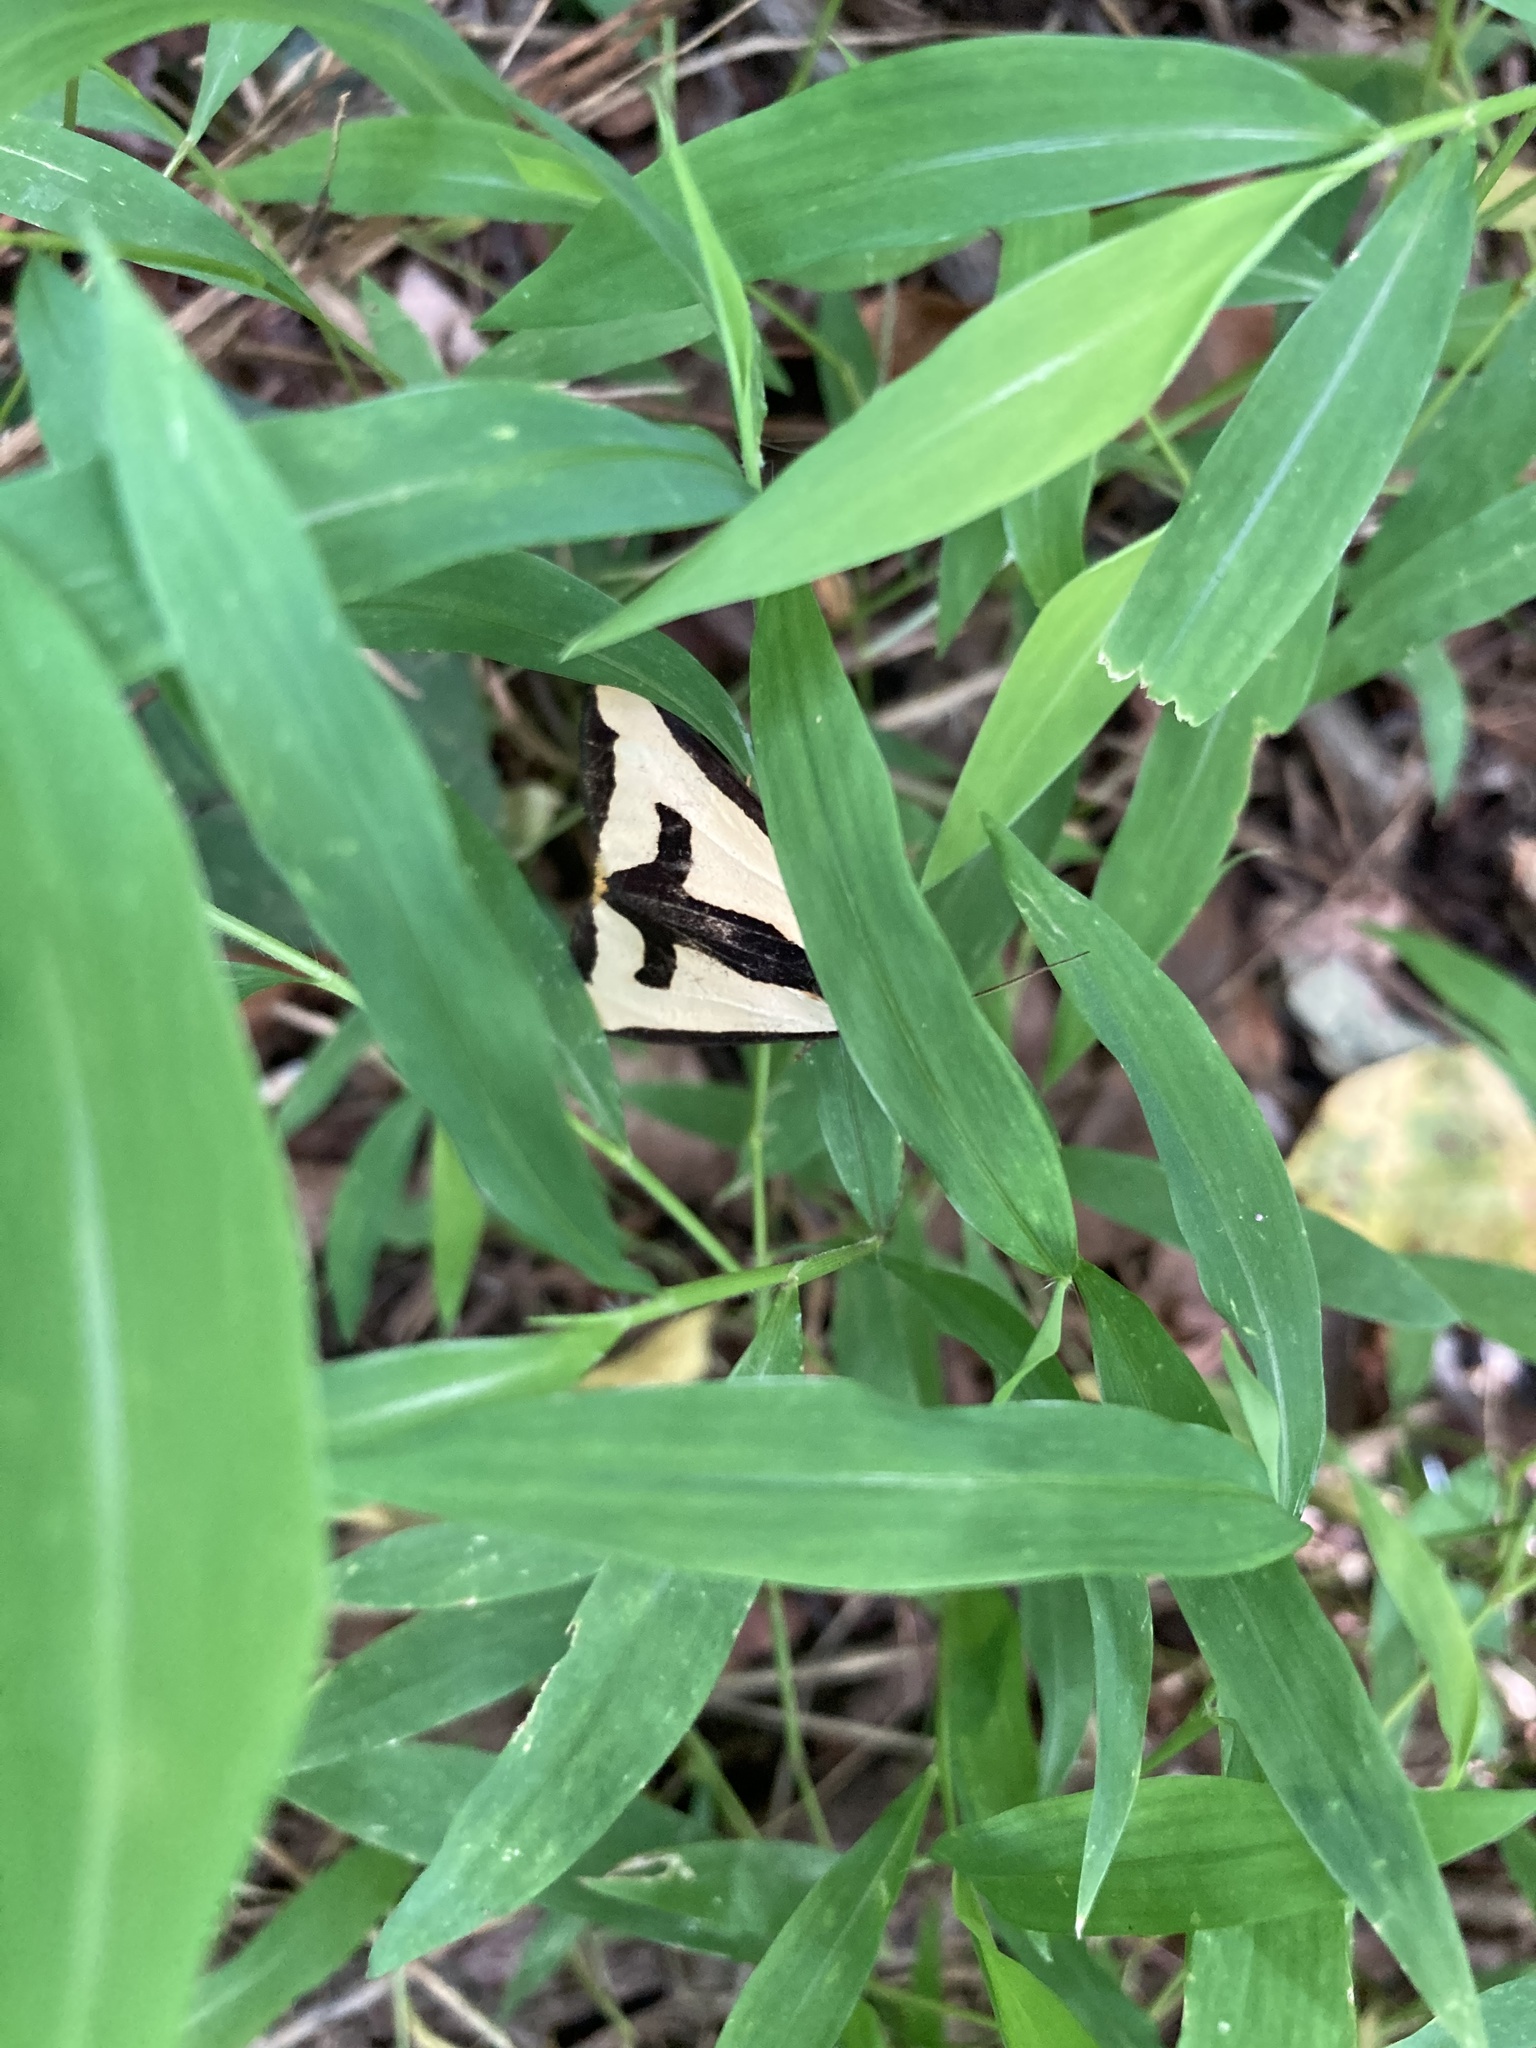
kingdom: Animalia
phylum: Arthropoda
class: Insecta
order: Lepidoptera
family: Erebidae
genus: Haploa
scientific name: Haploa clymene
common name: Clymene moth
